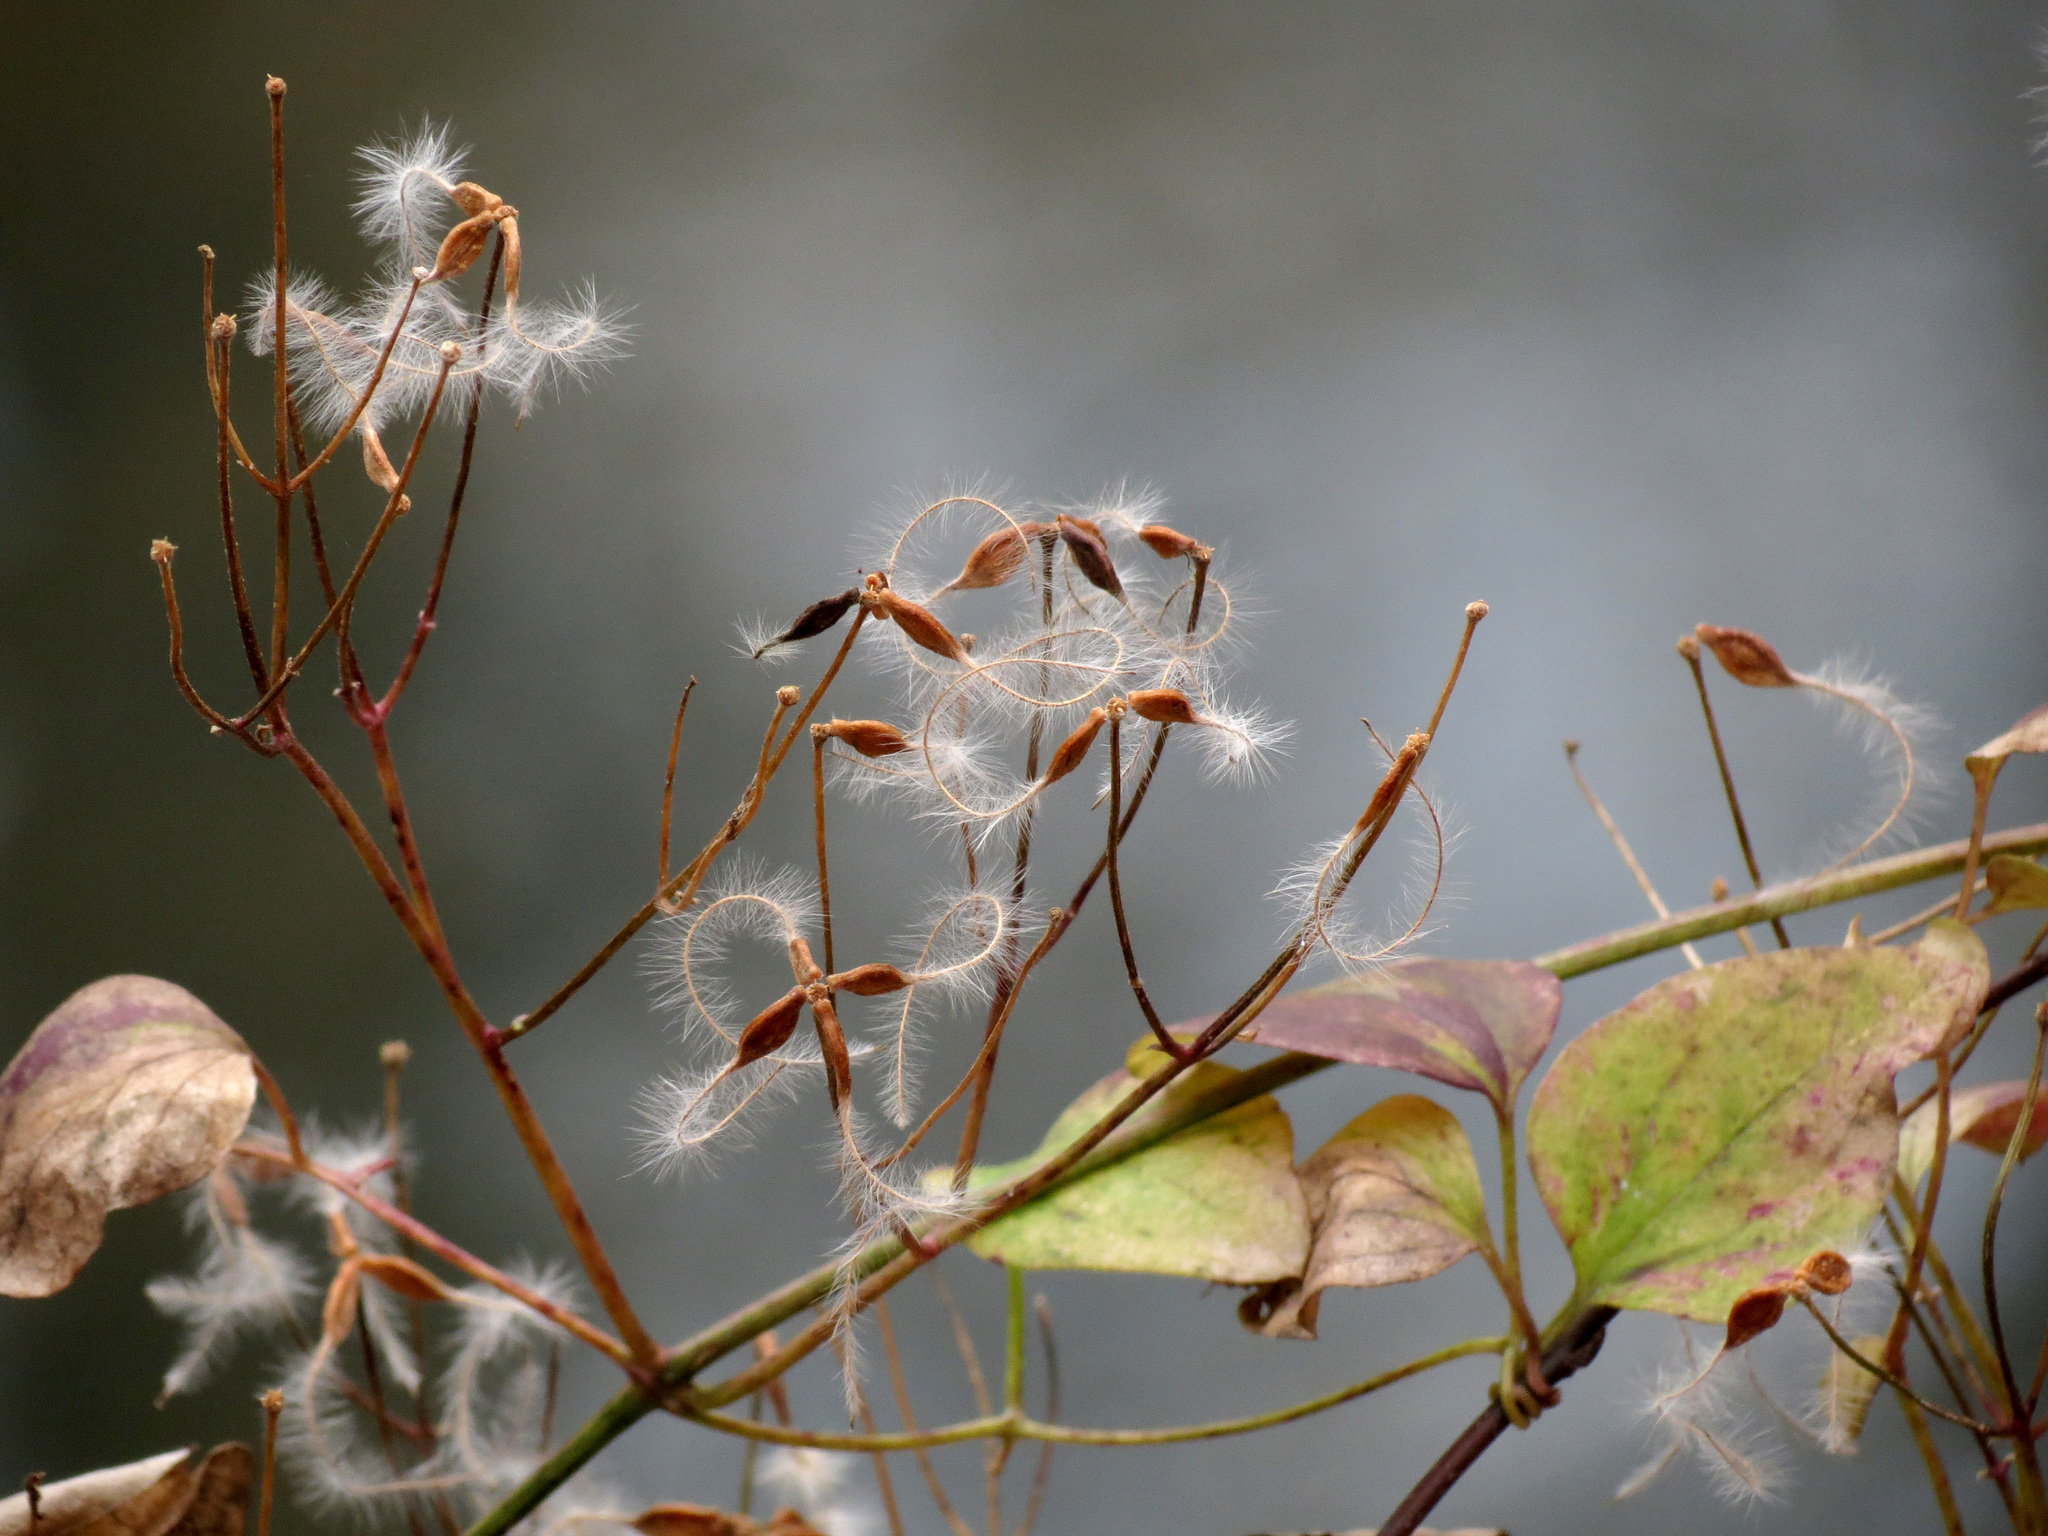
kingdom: Plantae
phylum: Tracheophyta
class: Magnoliopsida
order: Ranunculales
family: Ranunculaceae
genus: Clematis
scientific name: Clematis terniflora
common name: Sweet autumn clematis
